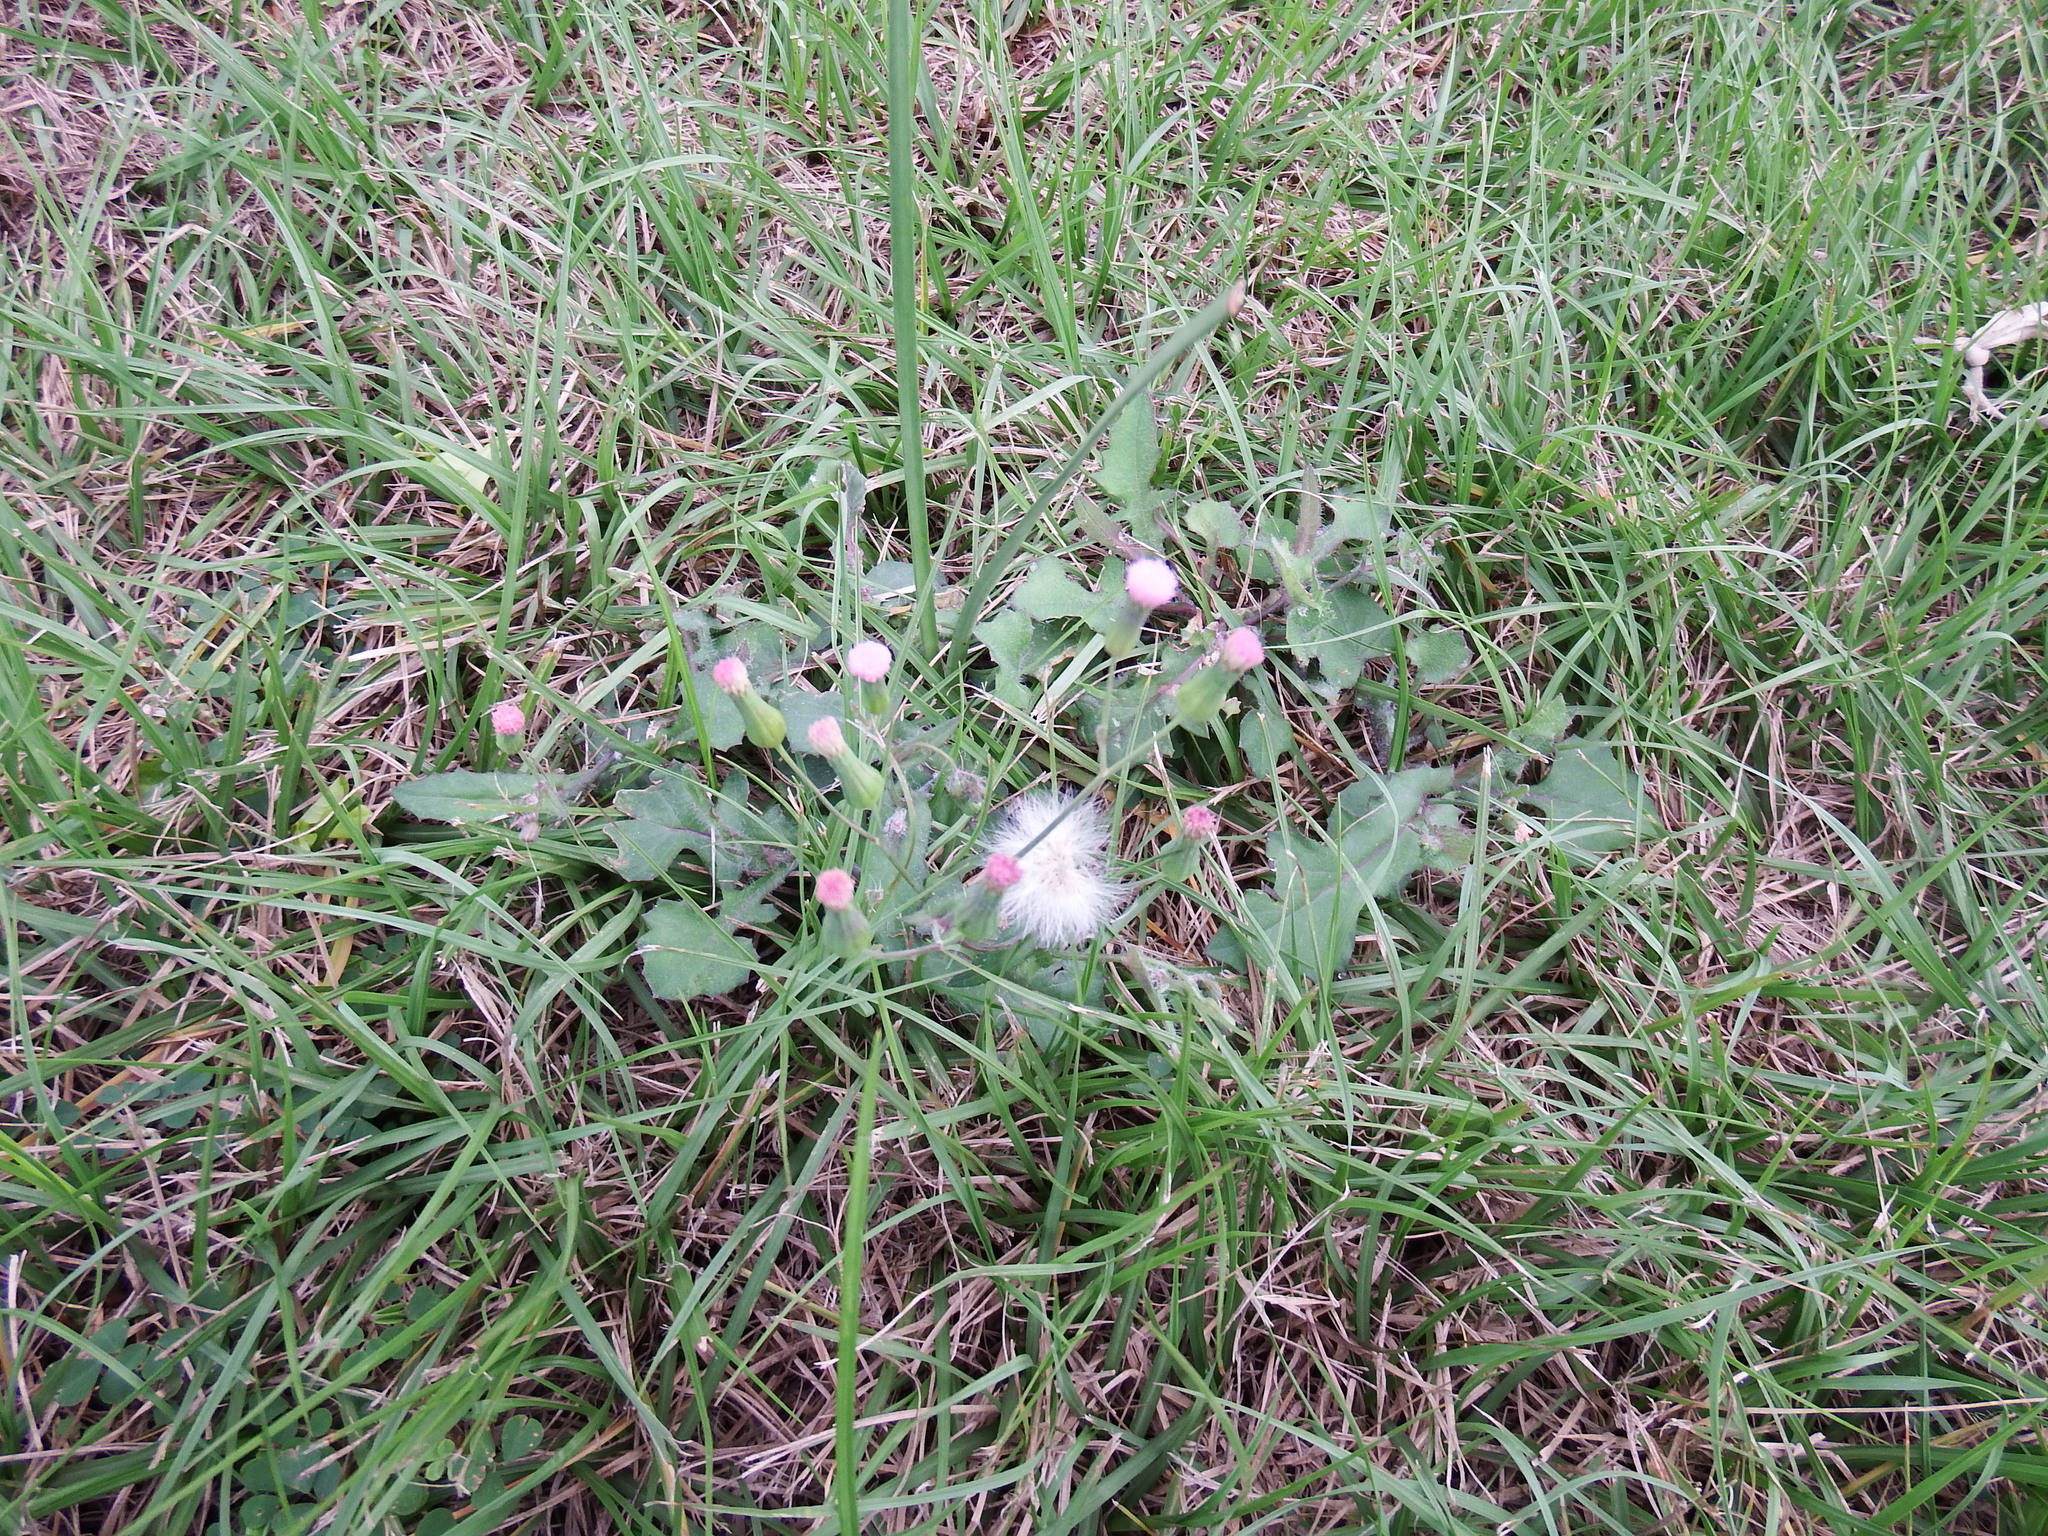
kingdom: Plantae
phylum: Tracheophyta
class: Magnoliopsida
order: Asterales
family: Asteraceae
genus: Emilia
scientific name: Emilia javanica
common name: Tassel-flower
